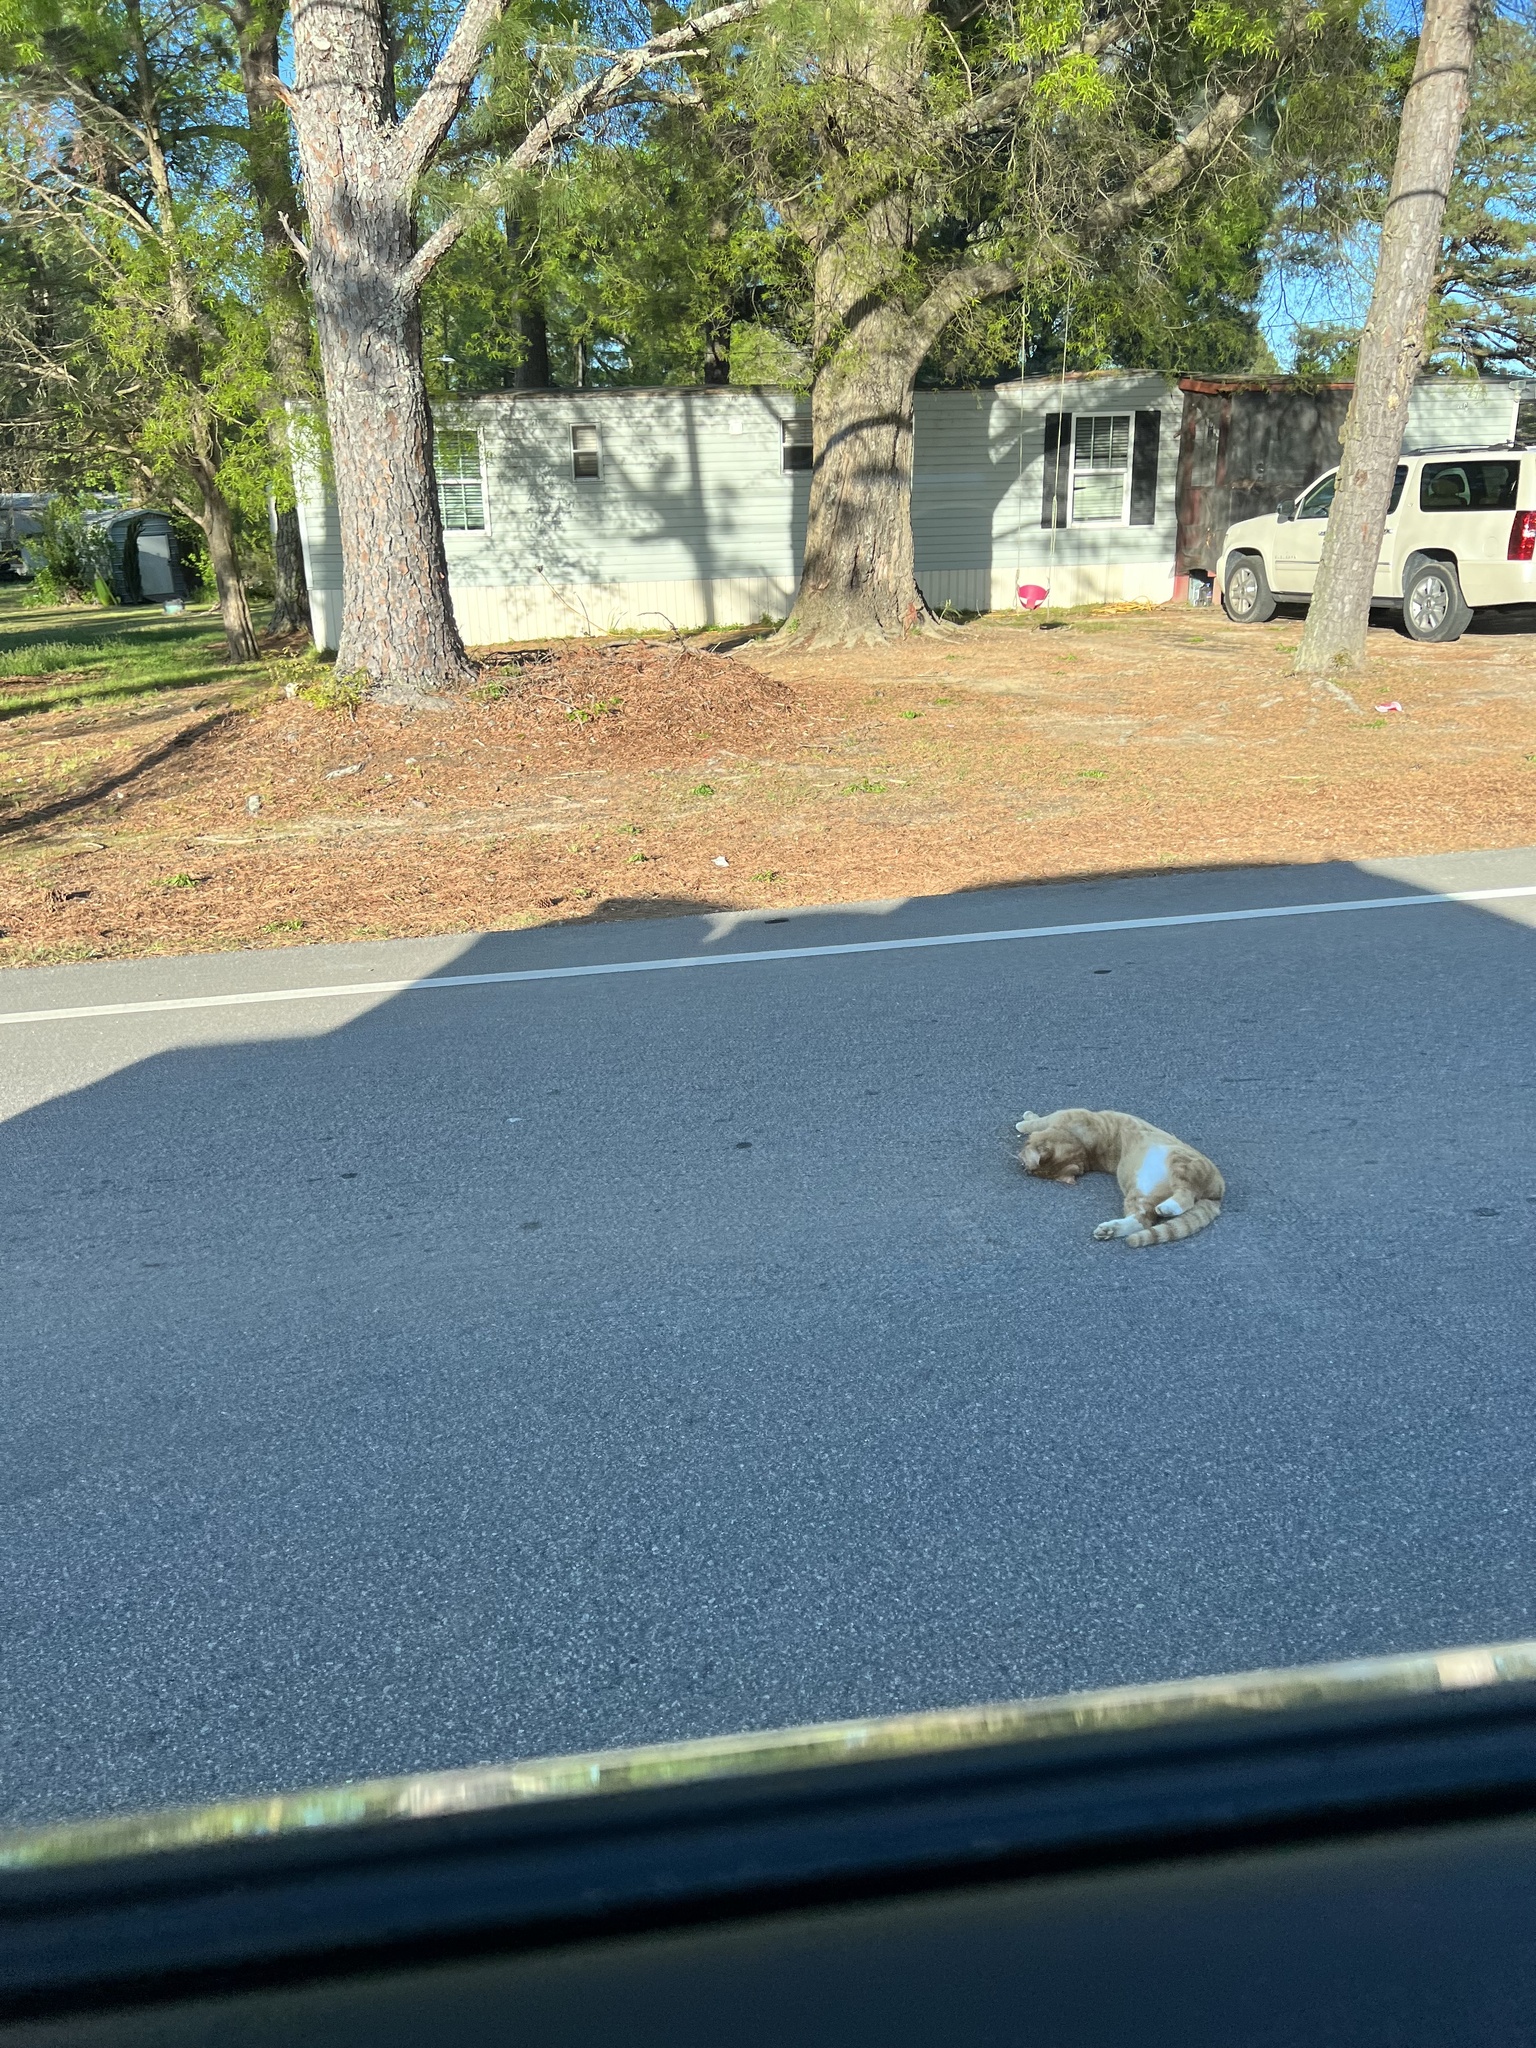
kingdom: Animalia
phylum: Chordata
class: Mammalia
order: Carnivora
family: Felidae
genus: Felis
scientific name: Felis catus
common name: Domestic cat
